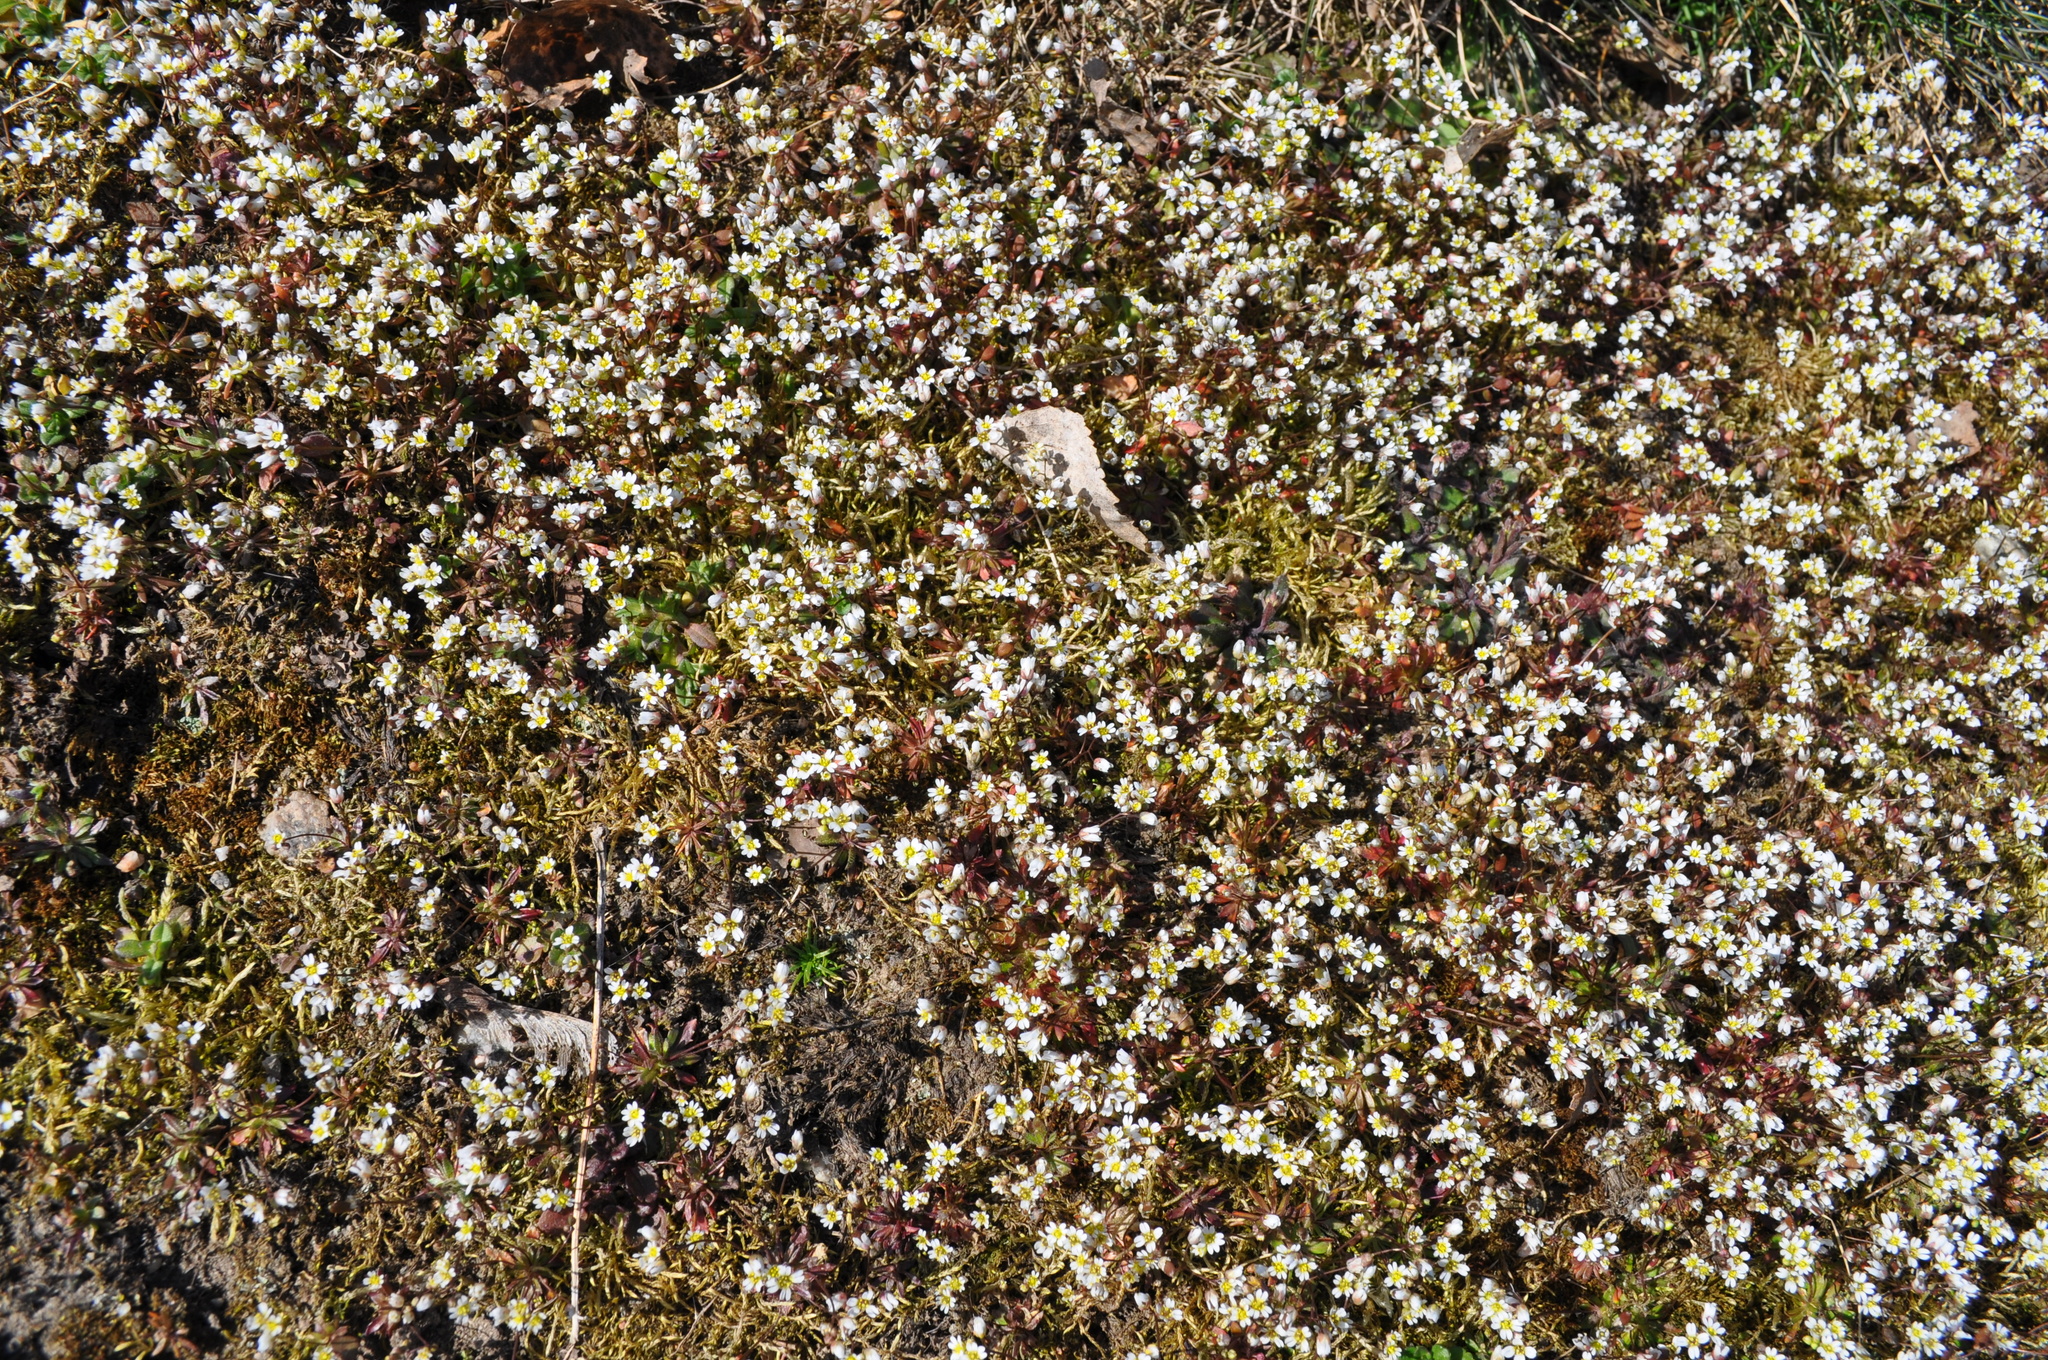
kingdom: Plantae
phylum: Tracheophyta
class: Magnoliopsida
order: Brassicales
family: Brassicaceae
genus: Draba
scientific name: Draba verna
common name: Spring draba
